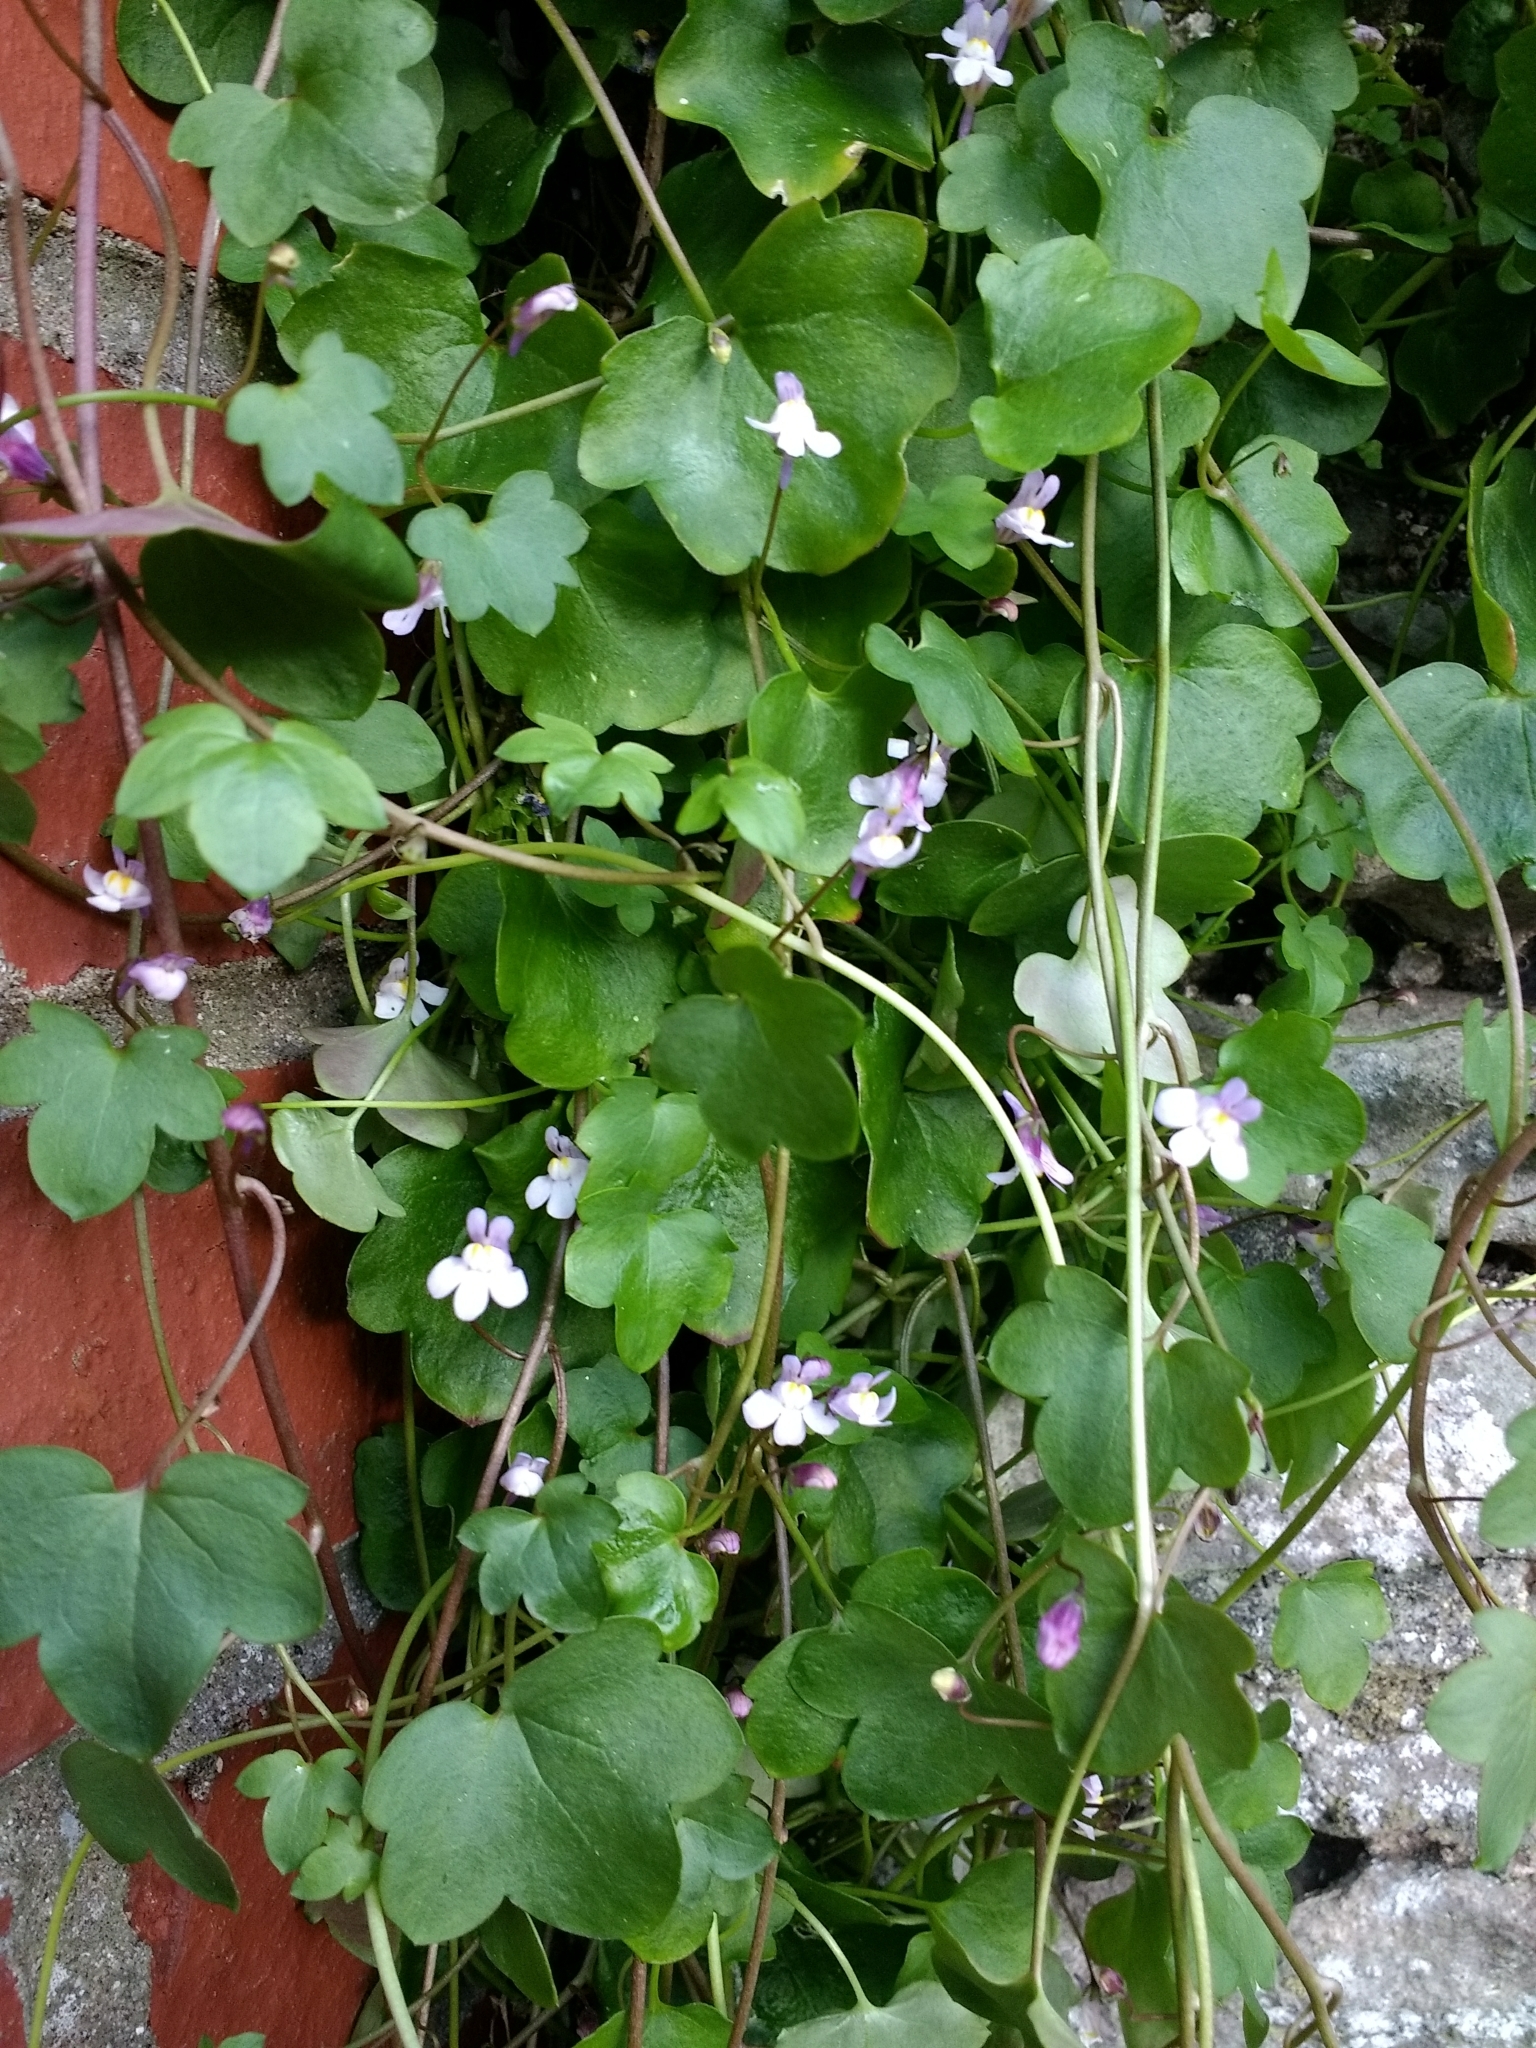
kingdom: Plantae
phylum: Tracheophyta
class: Magnoliopsida
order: Lamiales
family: Plantaginaceae
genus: Cymbalaria
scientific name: Cymbalaria muralis
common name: Ivy-leaved toadflax
